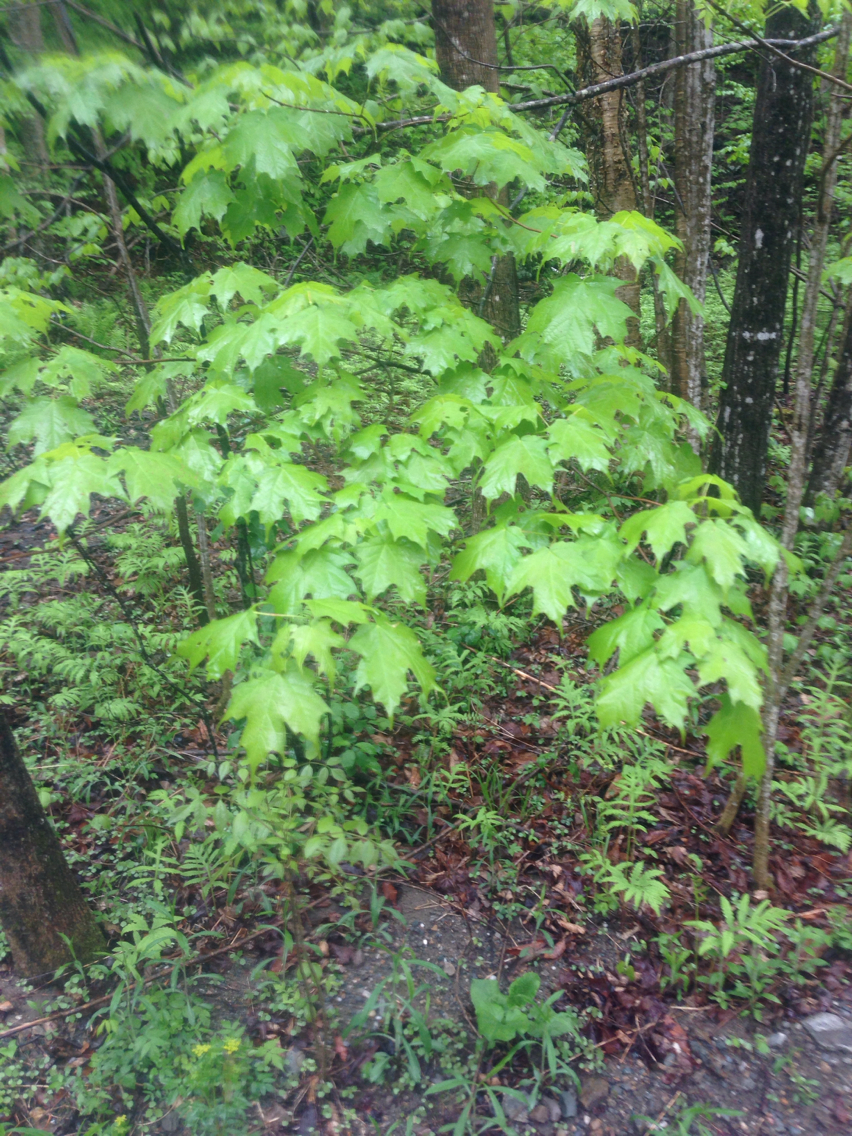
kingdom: Plantae
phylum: Tracheophyta
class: Magnoliopsida
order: Sapindales
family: Sapindaceae
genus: Acer
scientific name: Acer saccharum
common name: Sugar maple
